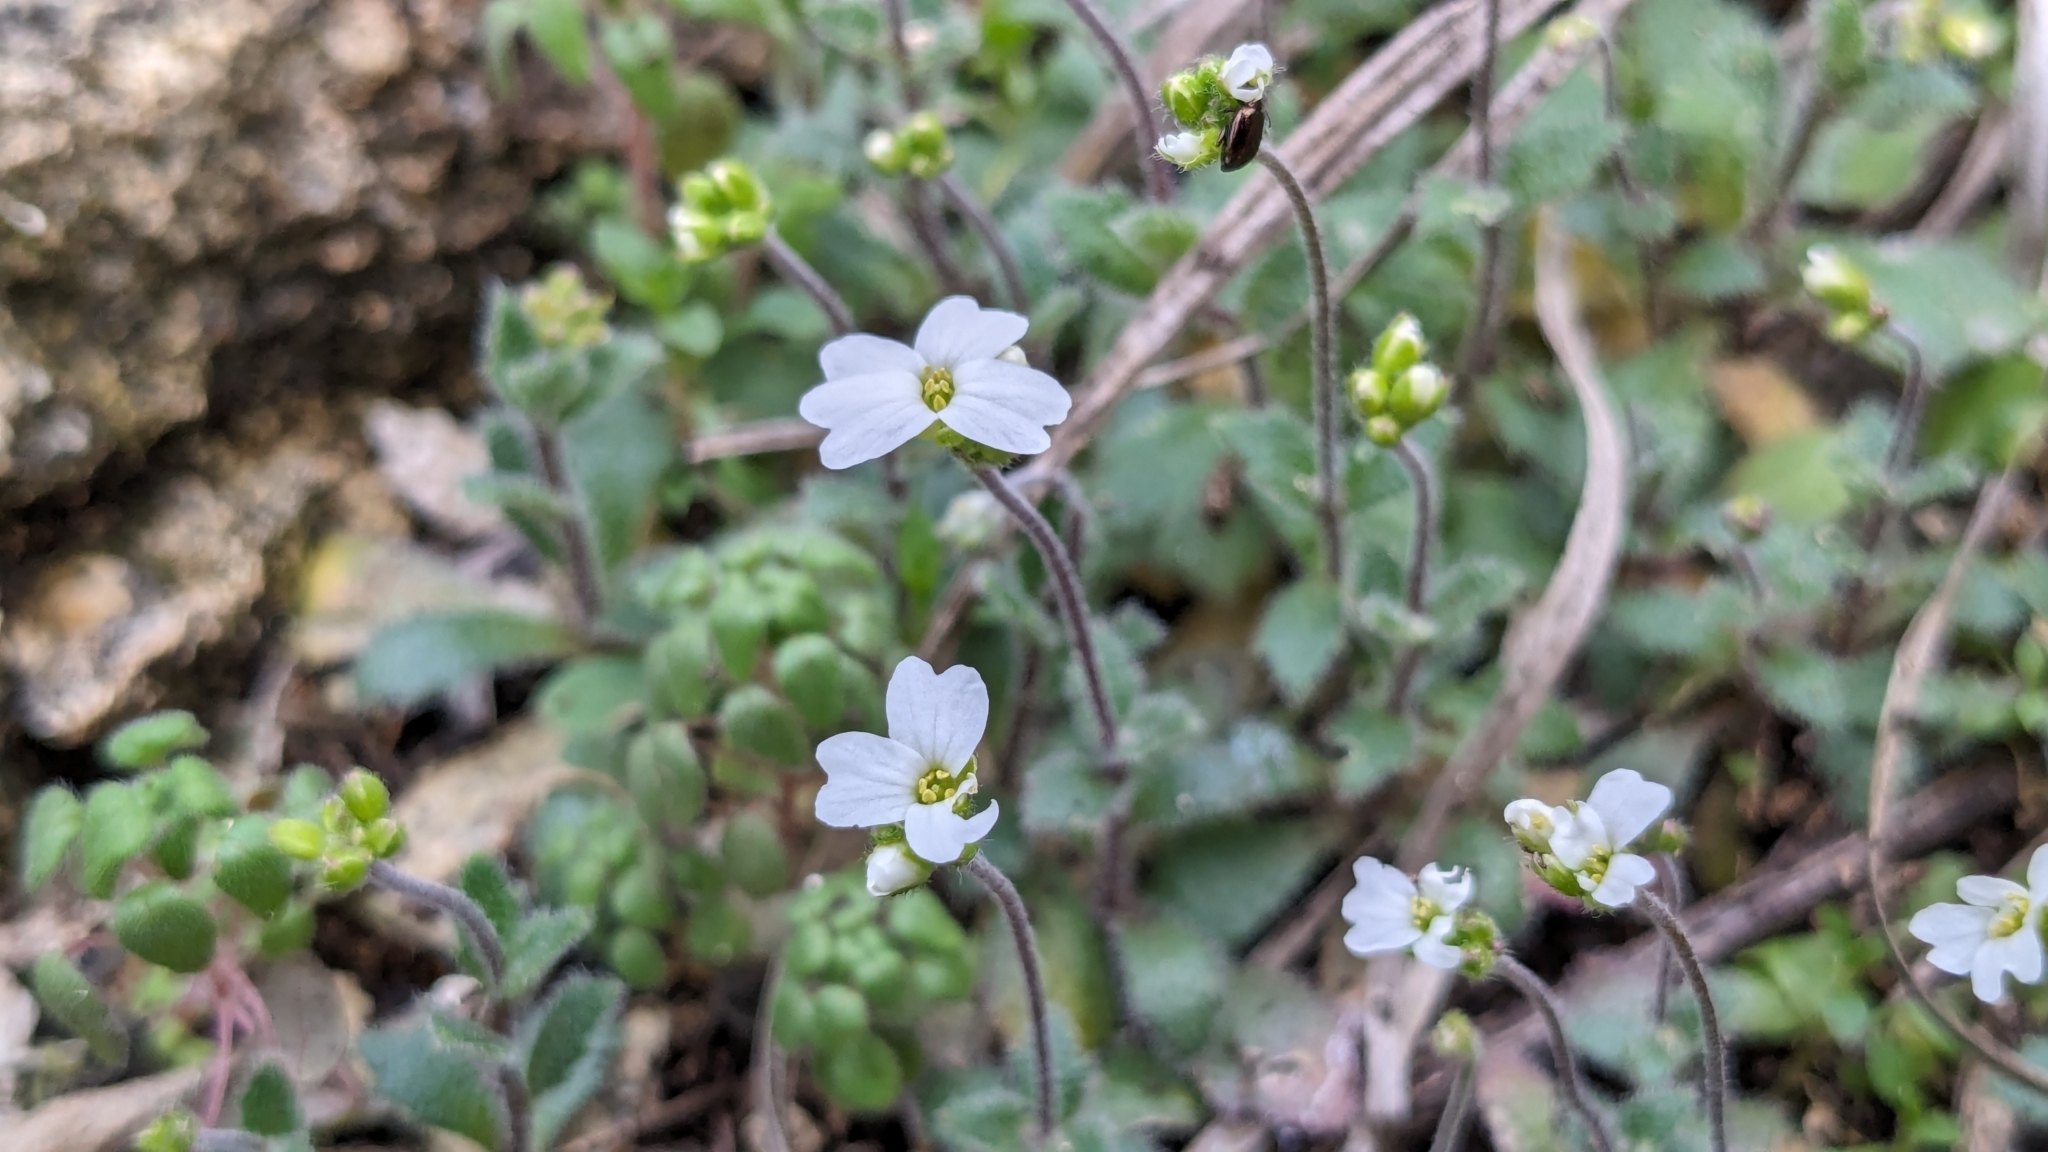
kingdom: Plantae
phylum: Tracheophyta
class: Magnoliopsida
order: Brassicales
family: Brassicaceae
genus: Tomostima
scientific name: Tomostima cuneifolia
